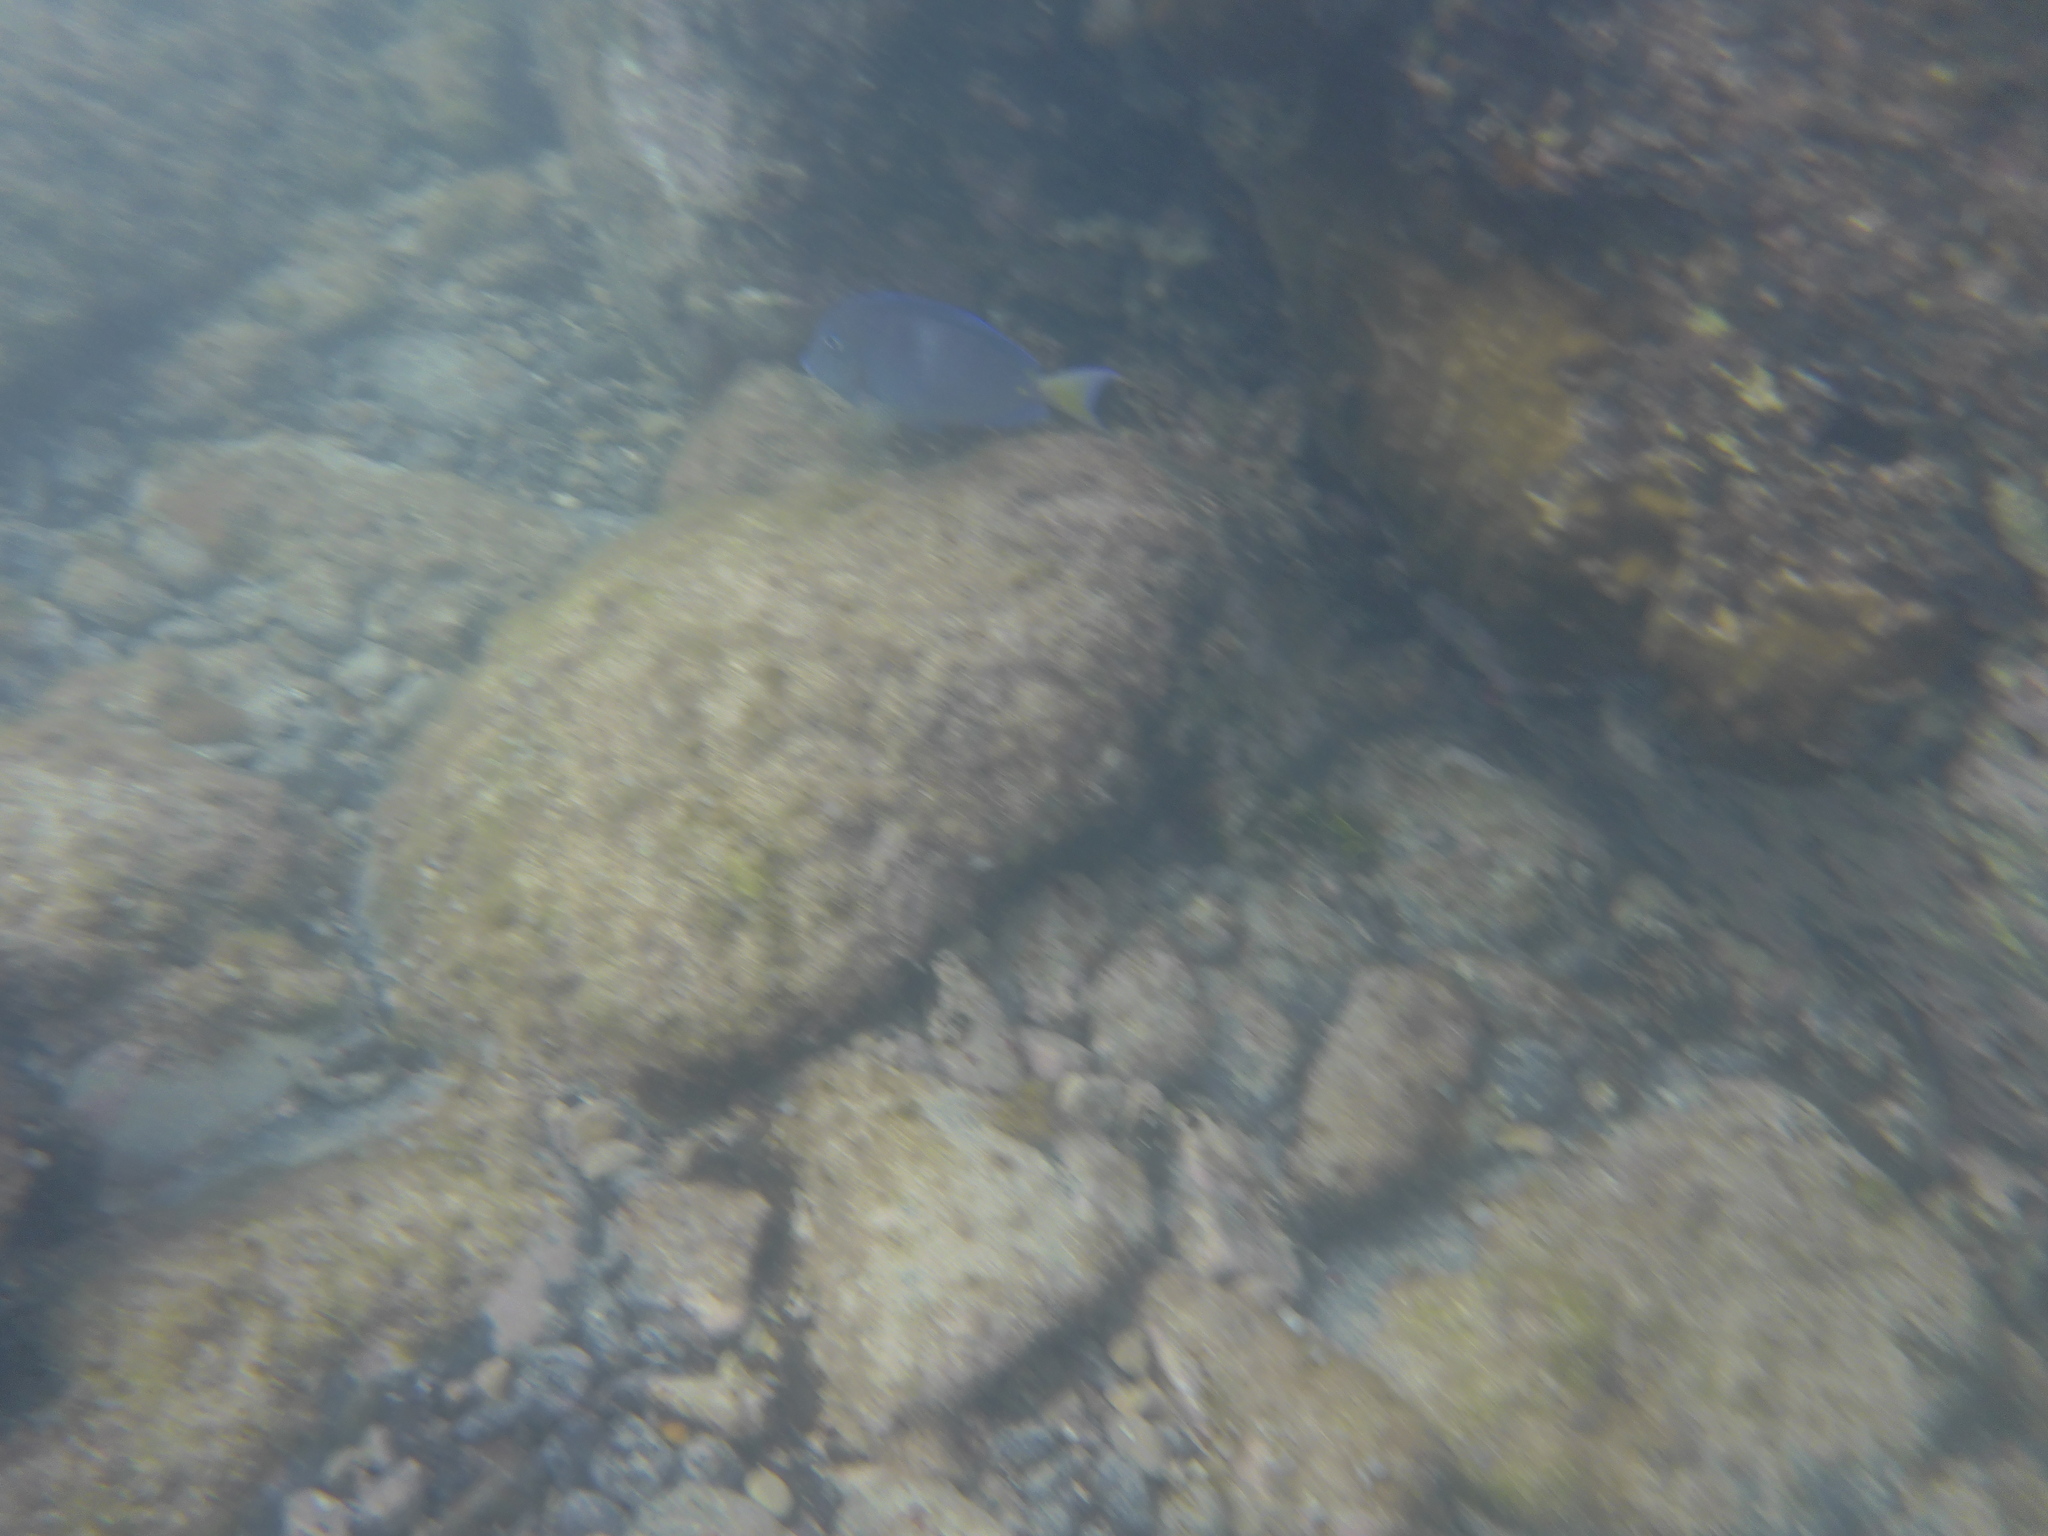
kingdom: Animalia
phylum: Chordata
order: Perciformes
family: Acanthuridae
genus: Acanthurus
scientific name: Acanthurus coeruleus
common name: Blue tang
